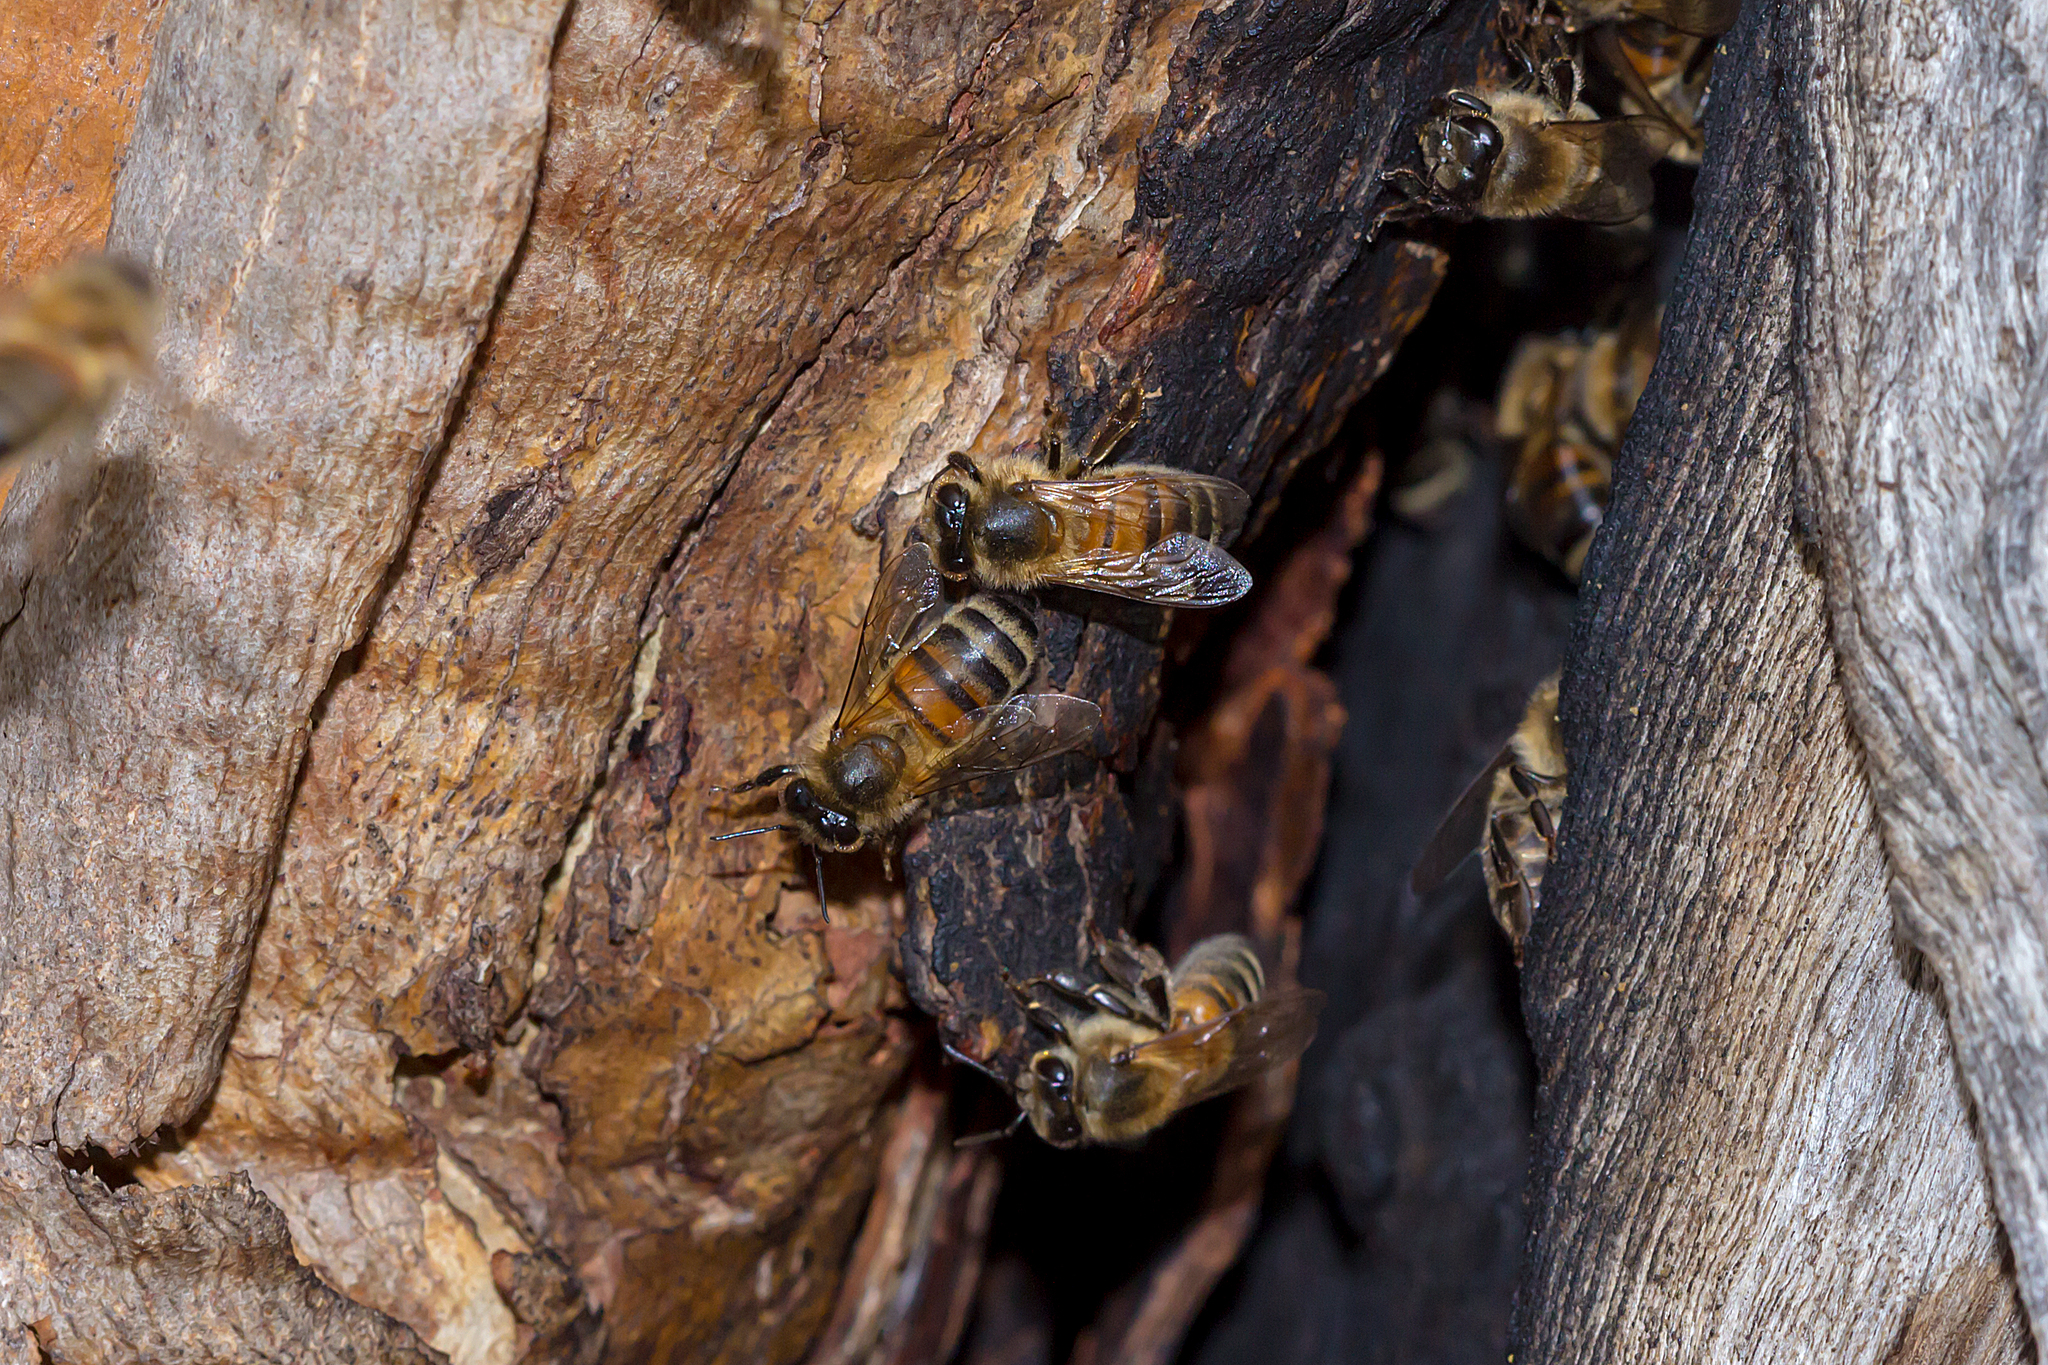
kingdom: Animalia
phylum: Arthropoda
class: Insecta
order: Hymenoptera
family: Apidae
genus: Apis
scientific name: Apis mellifera
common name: Honey bee
